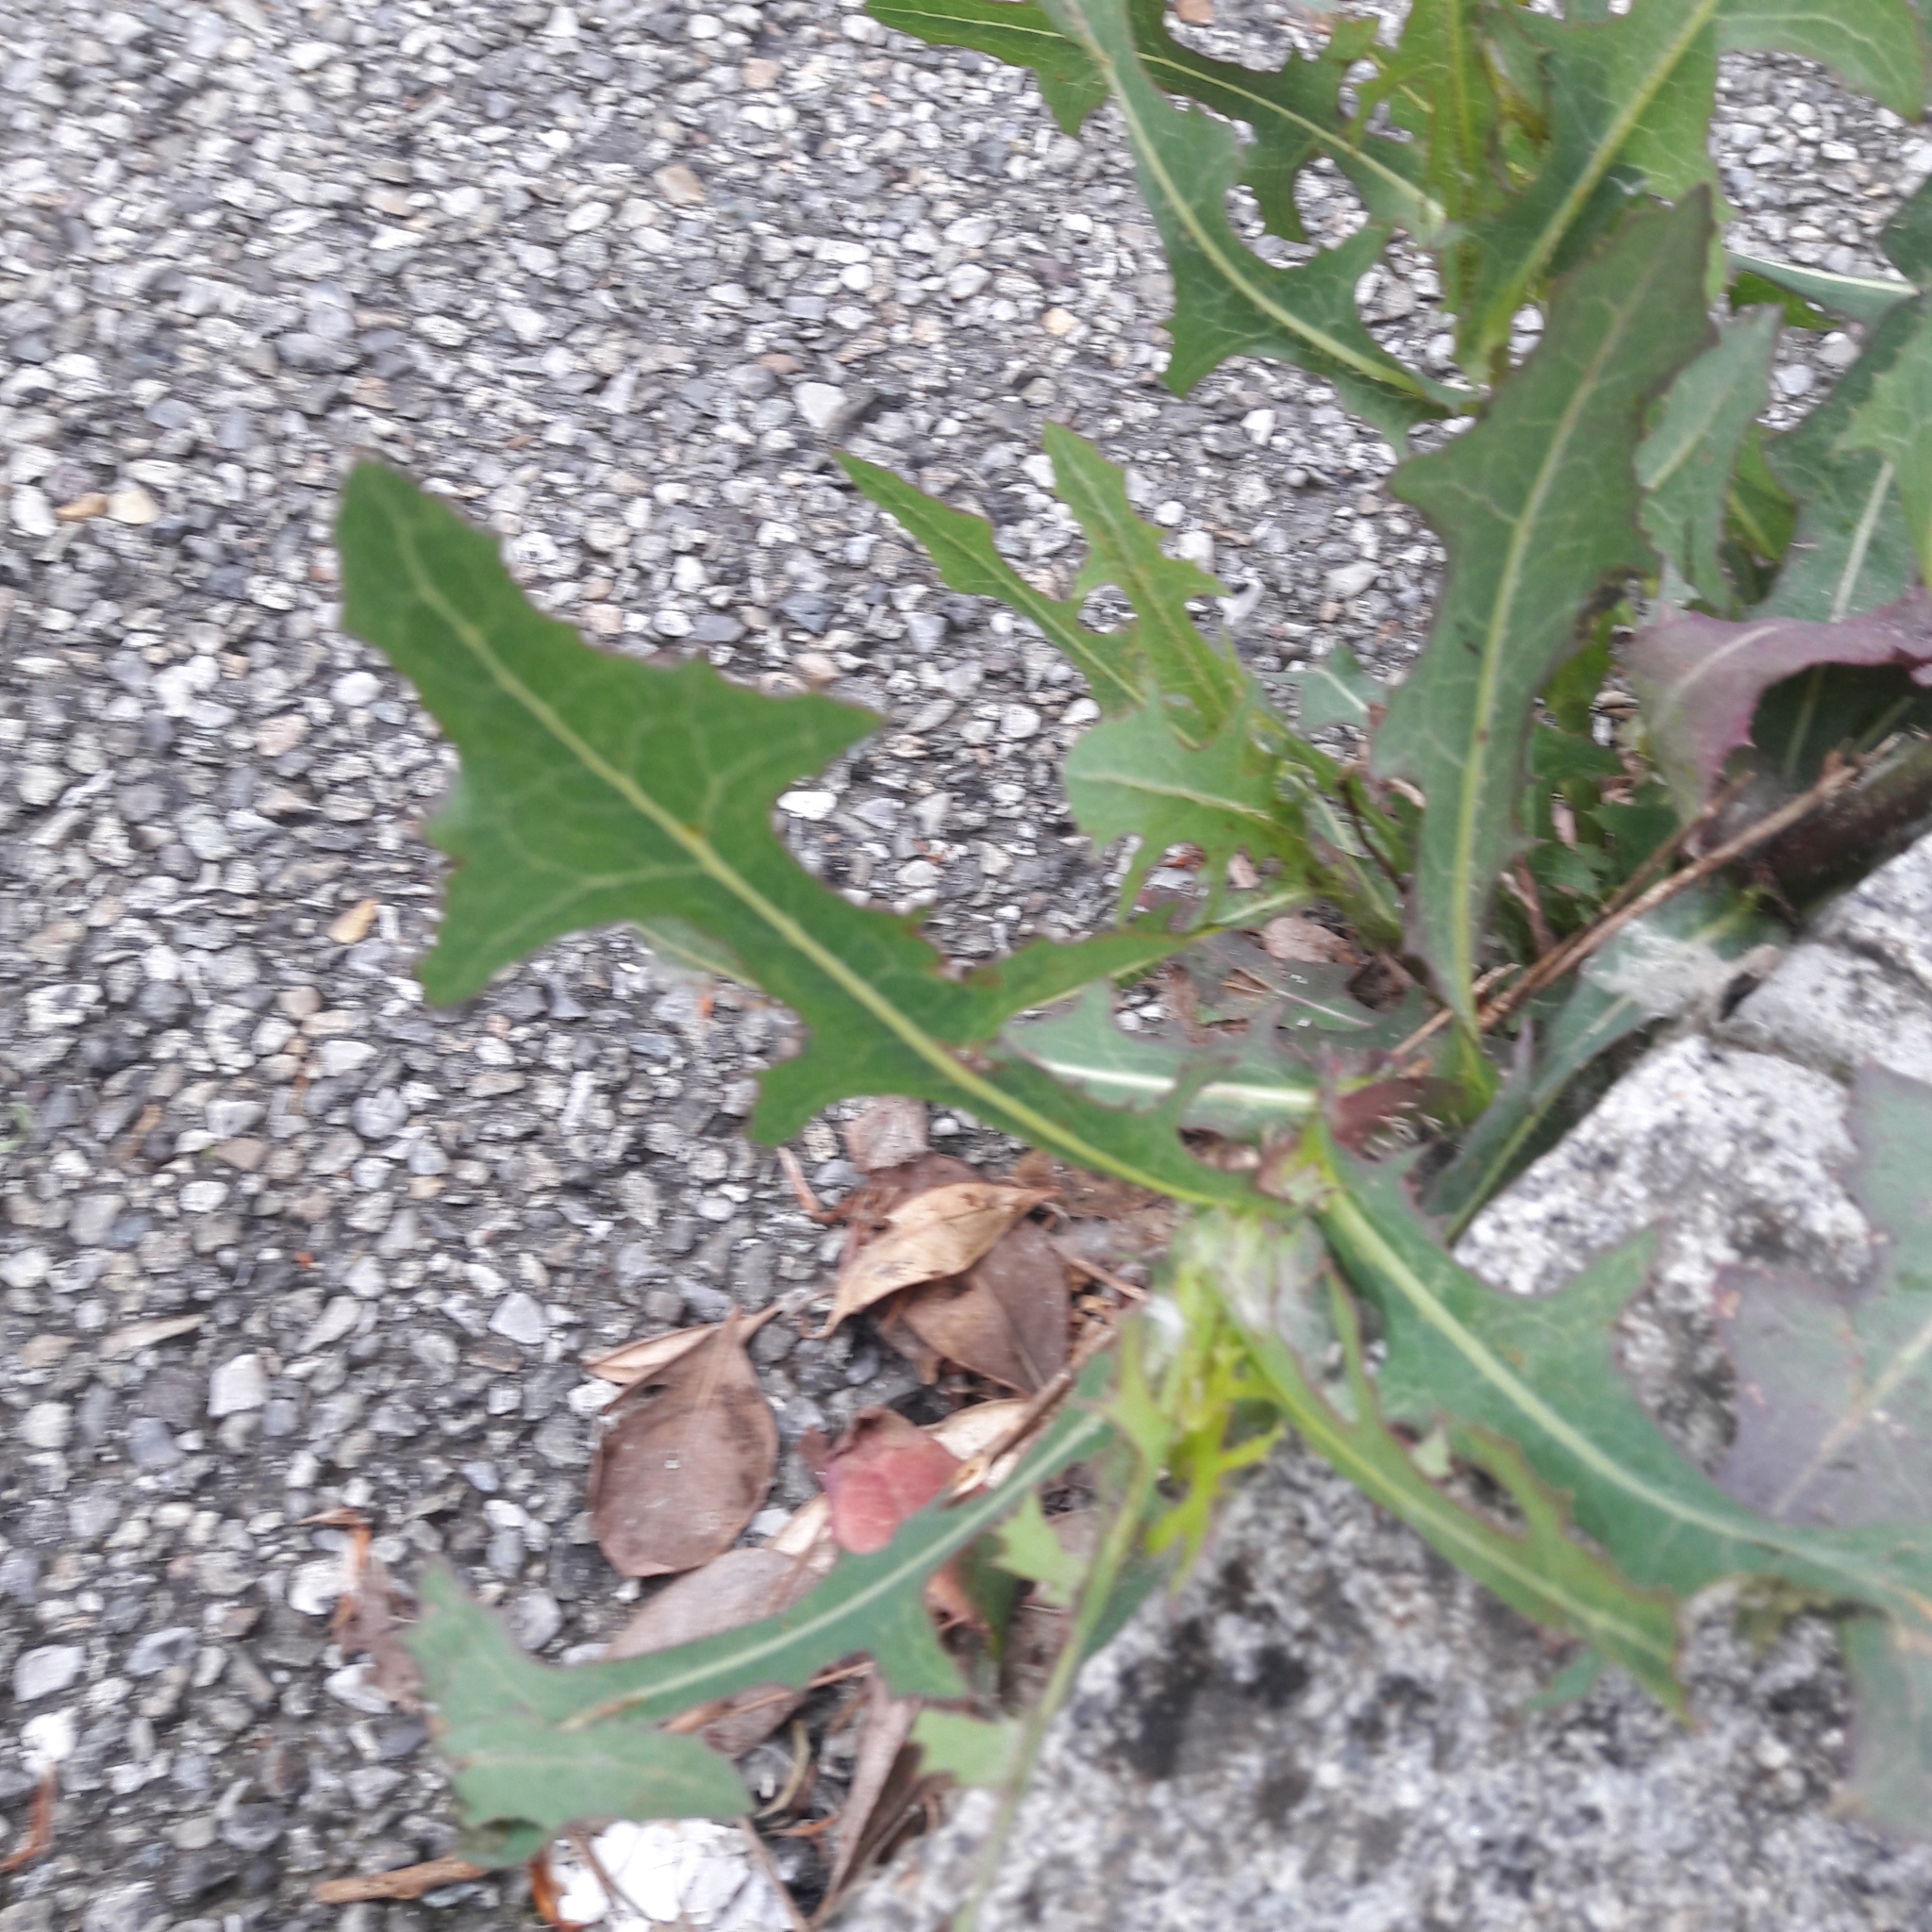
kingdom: Plantae
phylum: Tracheophyta
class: Magnoliopsida
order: Asterales
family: Asteraceae
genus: Lactuca
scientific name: Lactuca serriola
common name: Prickly lettuce
